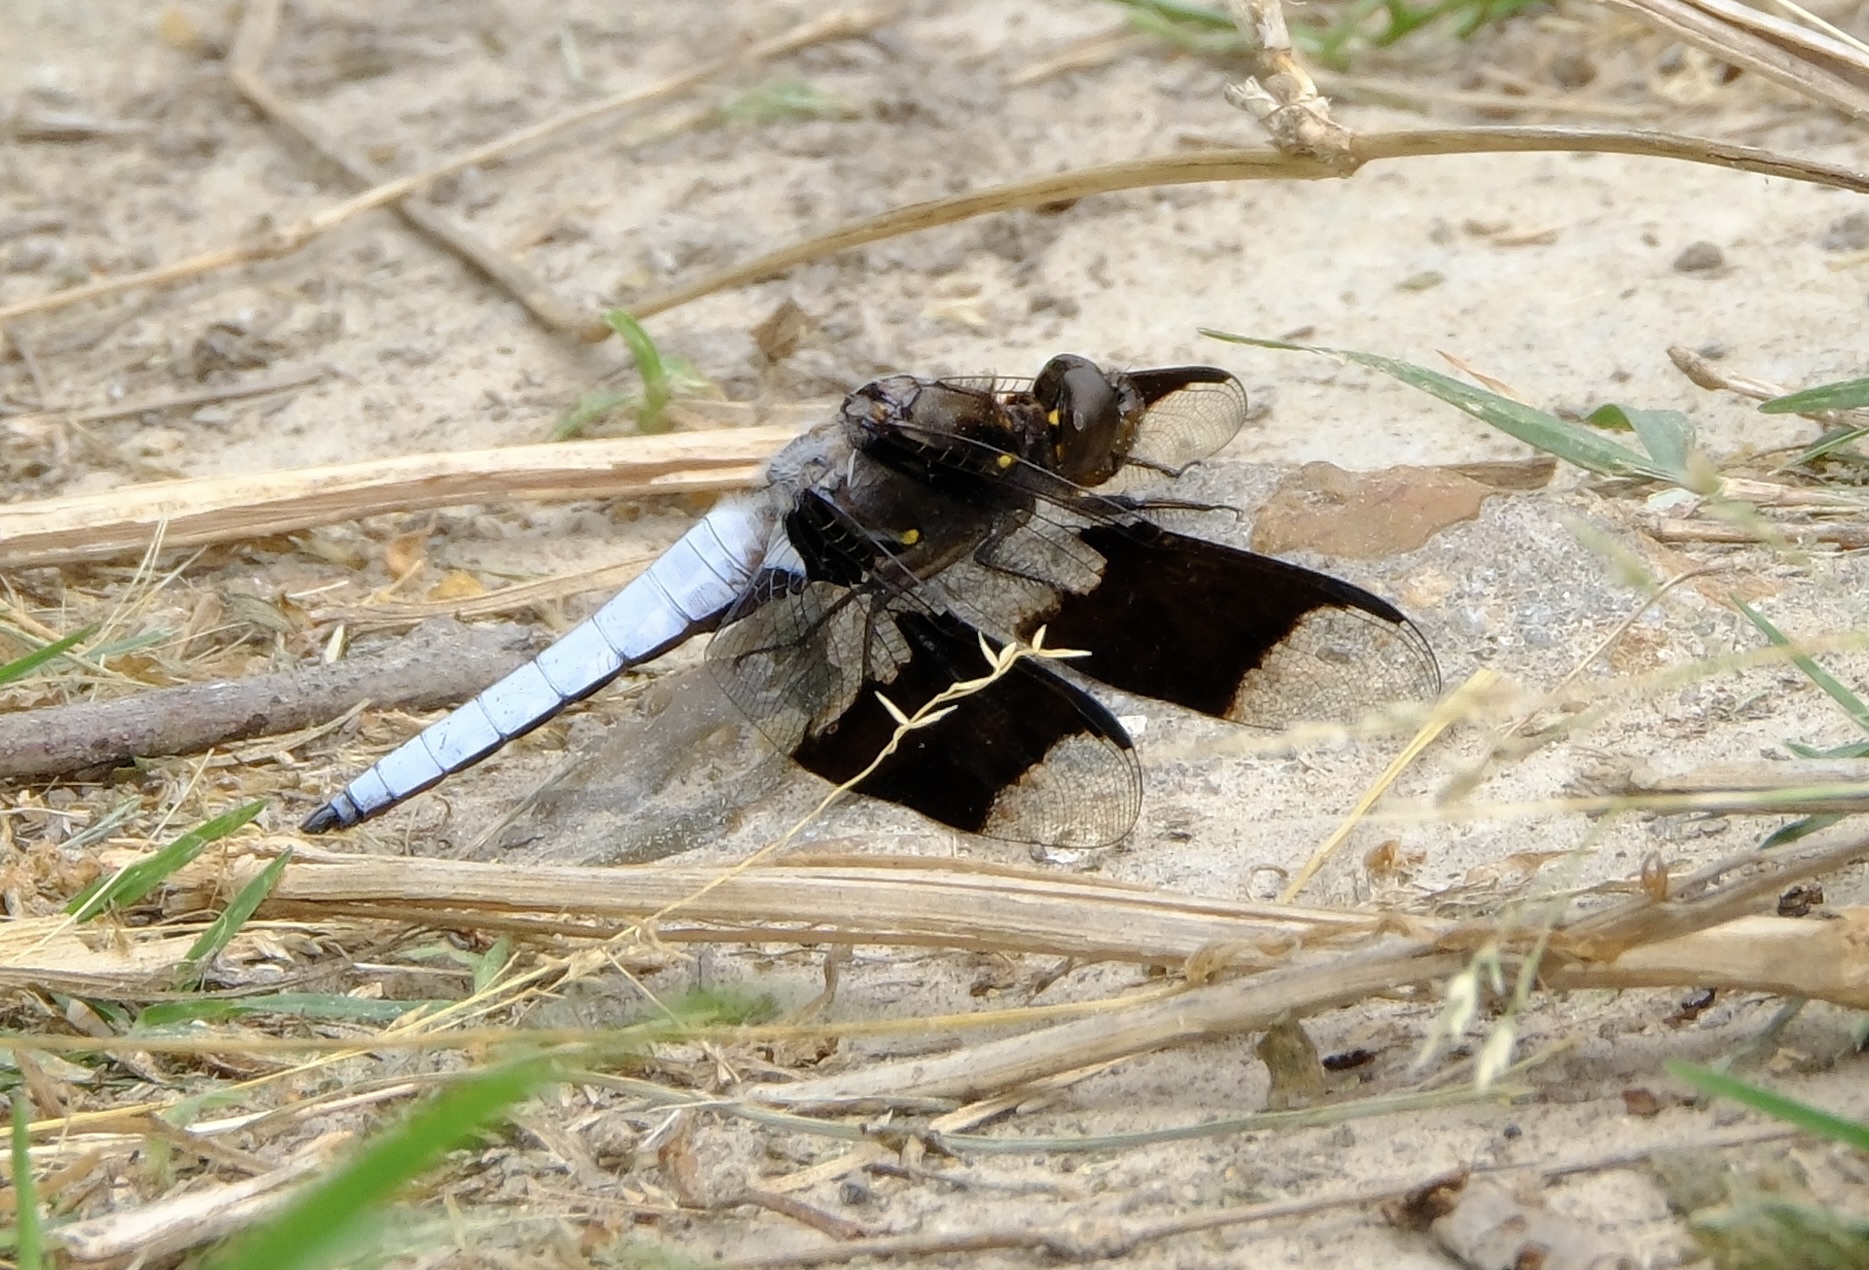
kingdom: Animalia
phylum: Arthropoda
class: Insecta
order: Odonata
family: Libellulidae
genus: Plathemis
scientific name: Plathemis lydia
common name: Common whitetail
